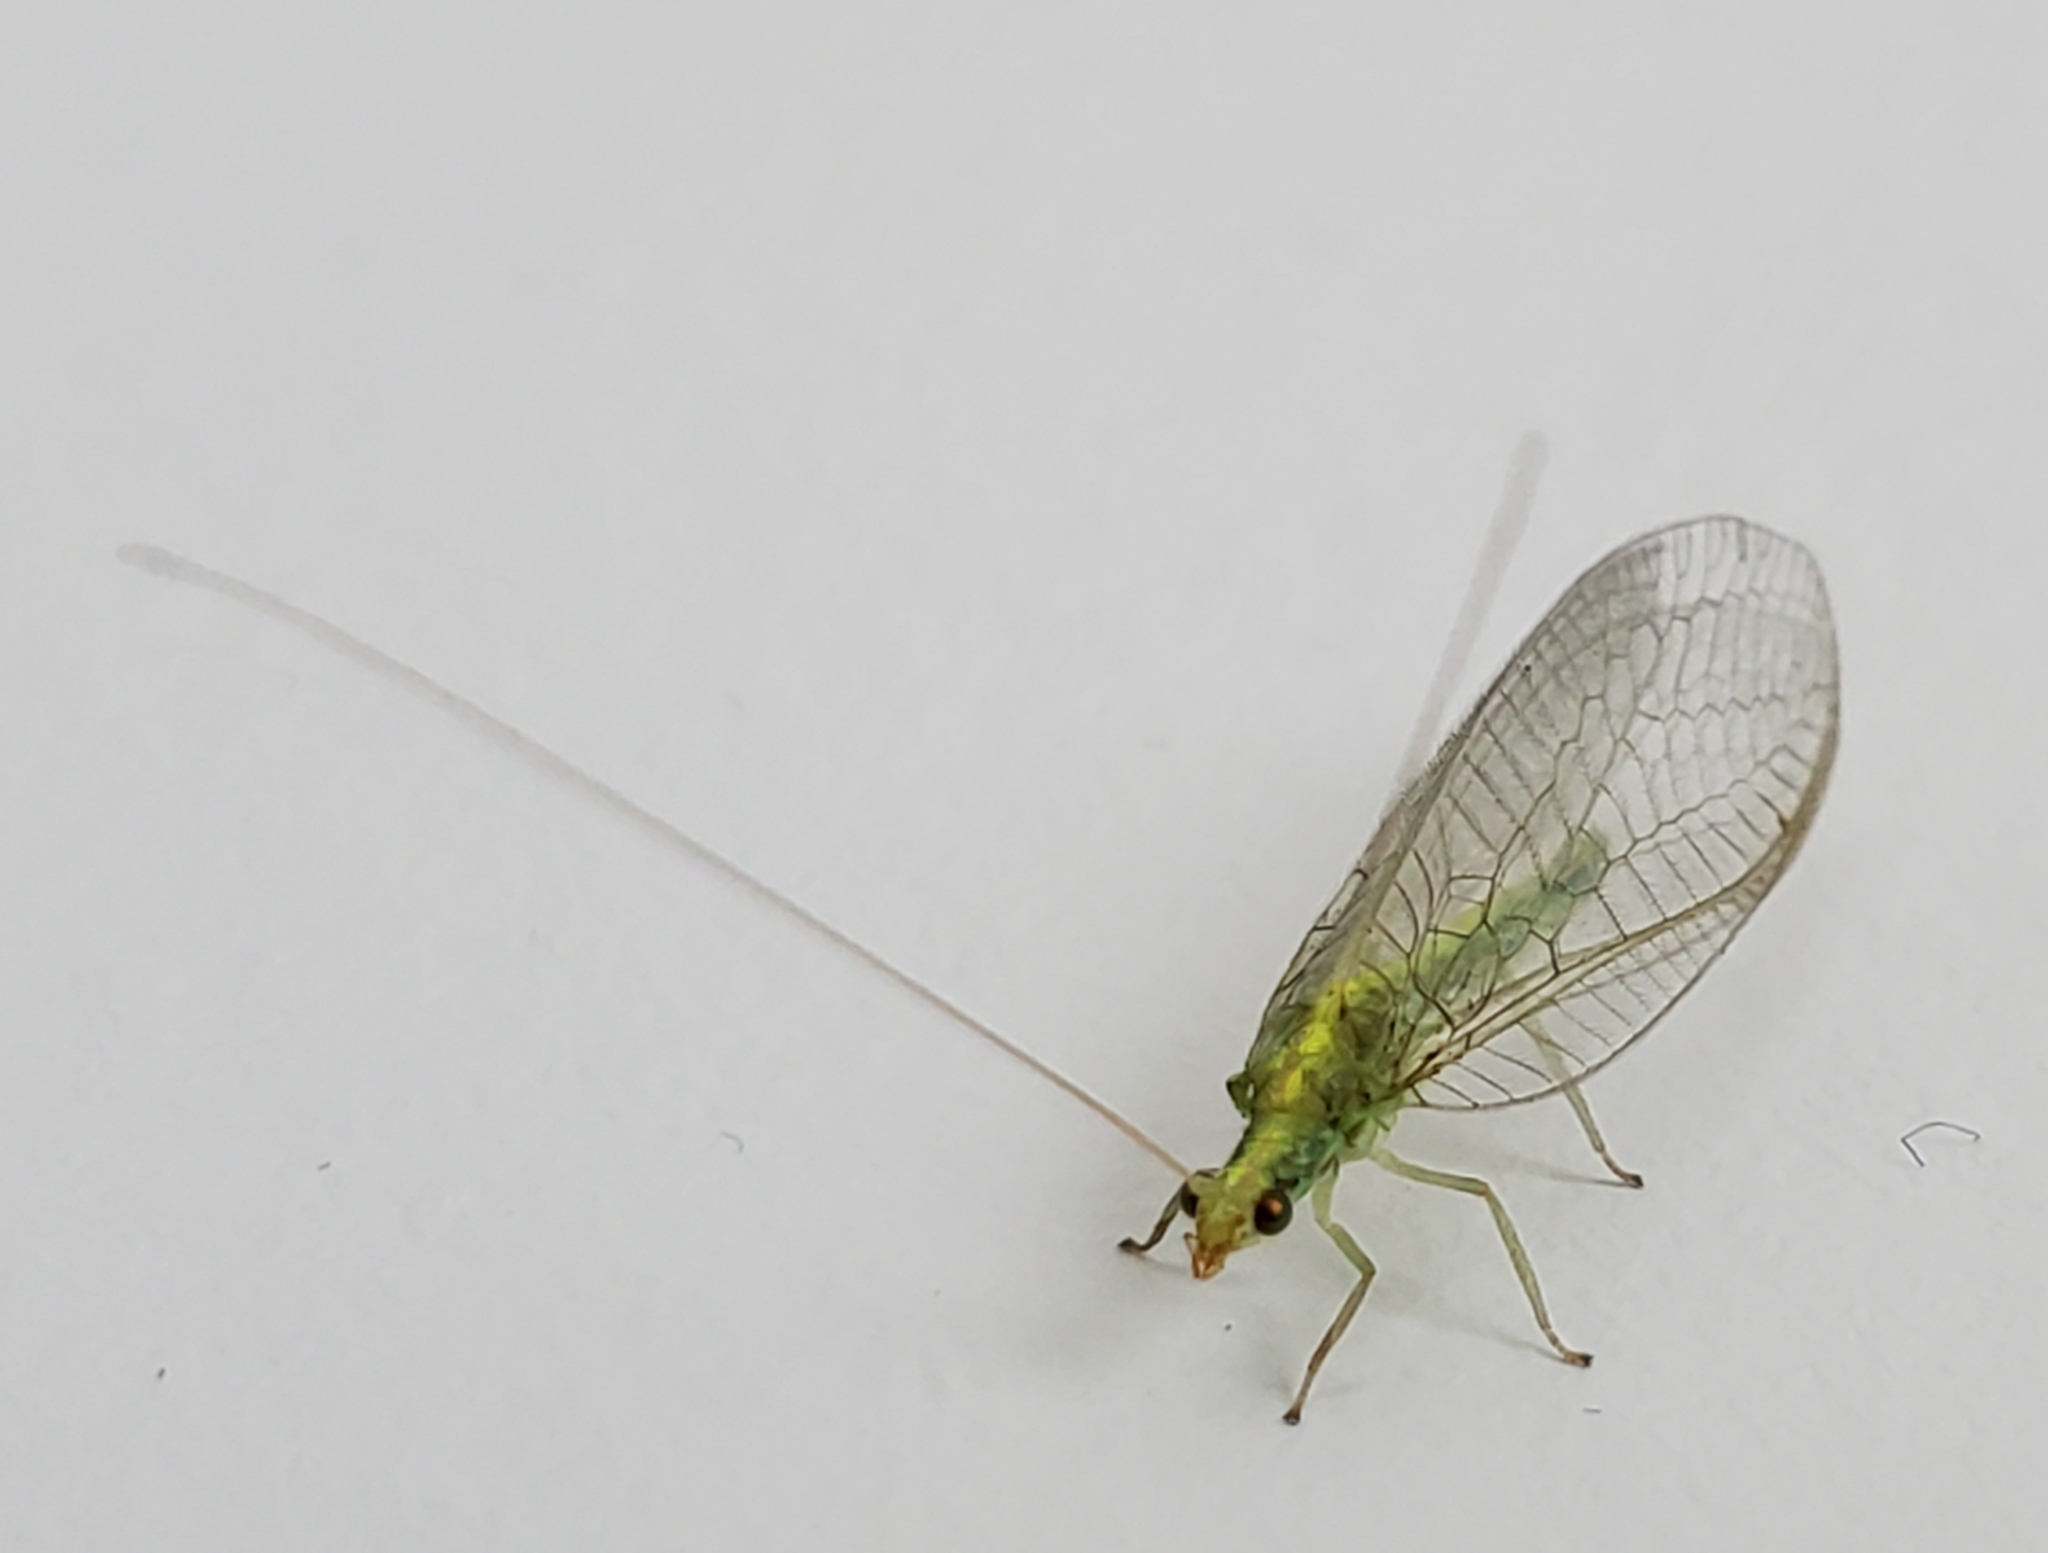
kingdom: Animalia
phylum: Arthropoda
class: Insecta
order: Neuroptera
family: Chrysopidae
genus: Mallada
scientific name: Mallada basalis
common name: Green lacewing
